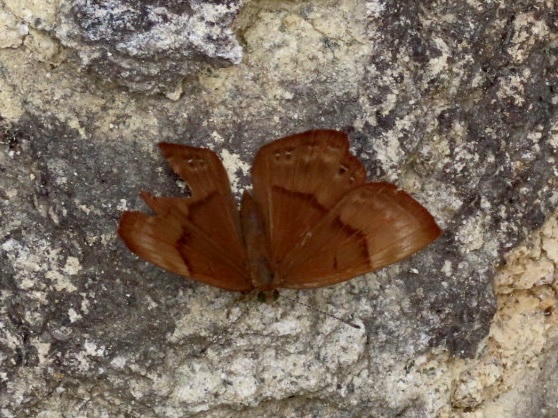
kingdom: Animalia
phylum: Arthropoda
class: Insecta
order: Lepidoptera
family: Lycaenidae
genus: Abisara
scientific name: Abisara echeria
